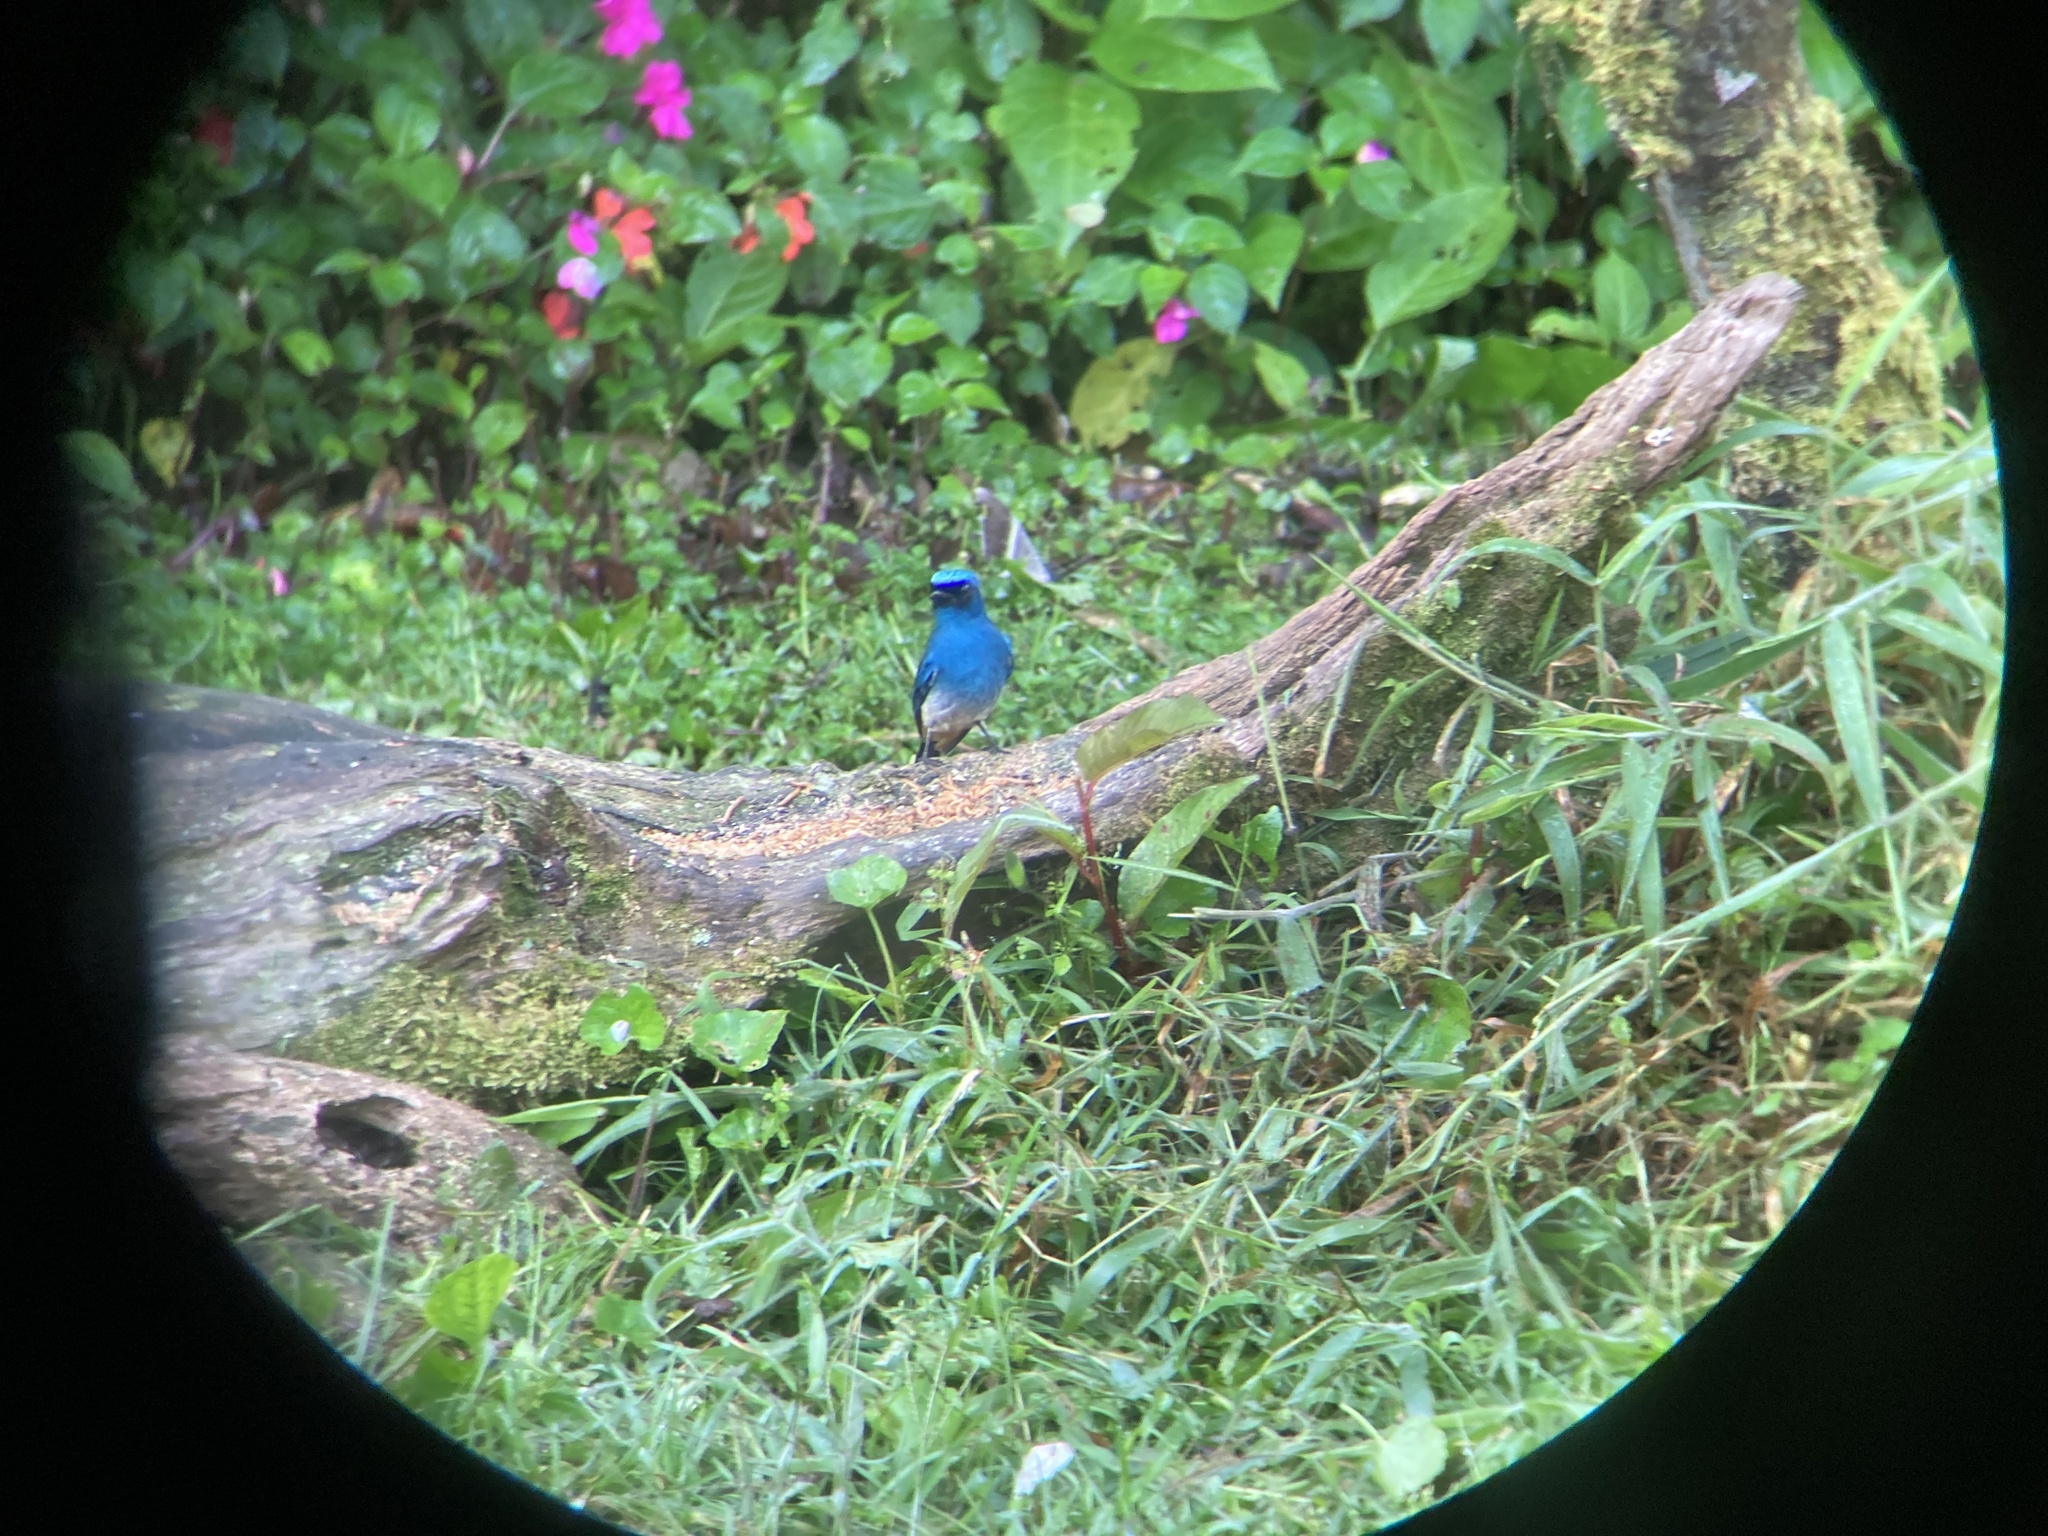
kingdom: Animalia
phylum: Chordata
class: Aves
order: Passeriformes
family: Muscicapidae
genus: Eumyias
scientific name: Eumyias indigo
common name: Indigo flycatcher
